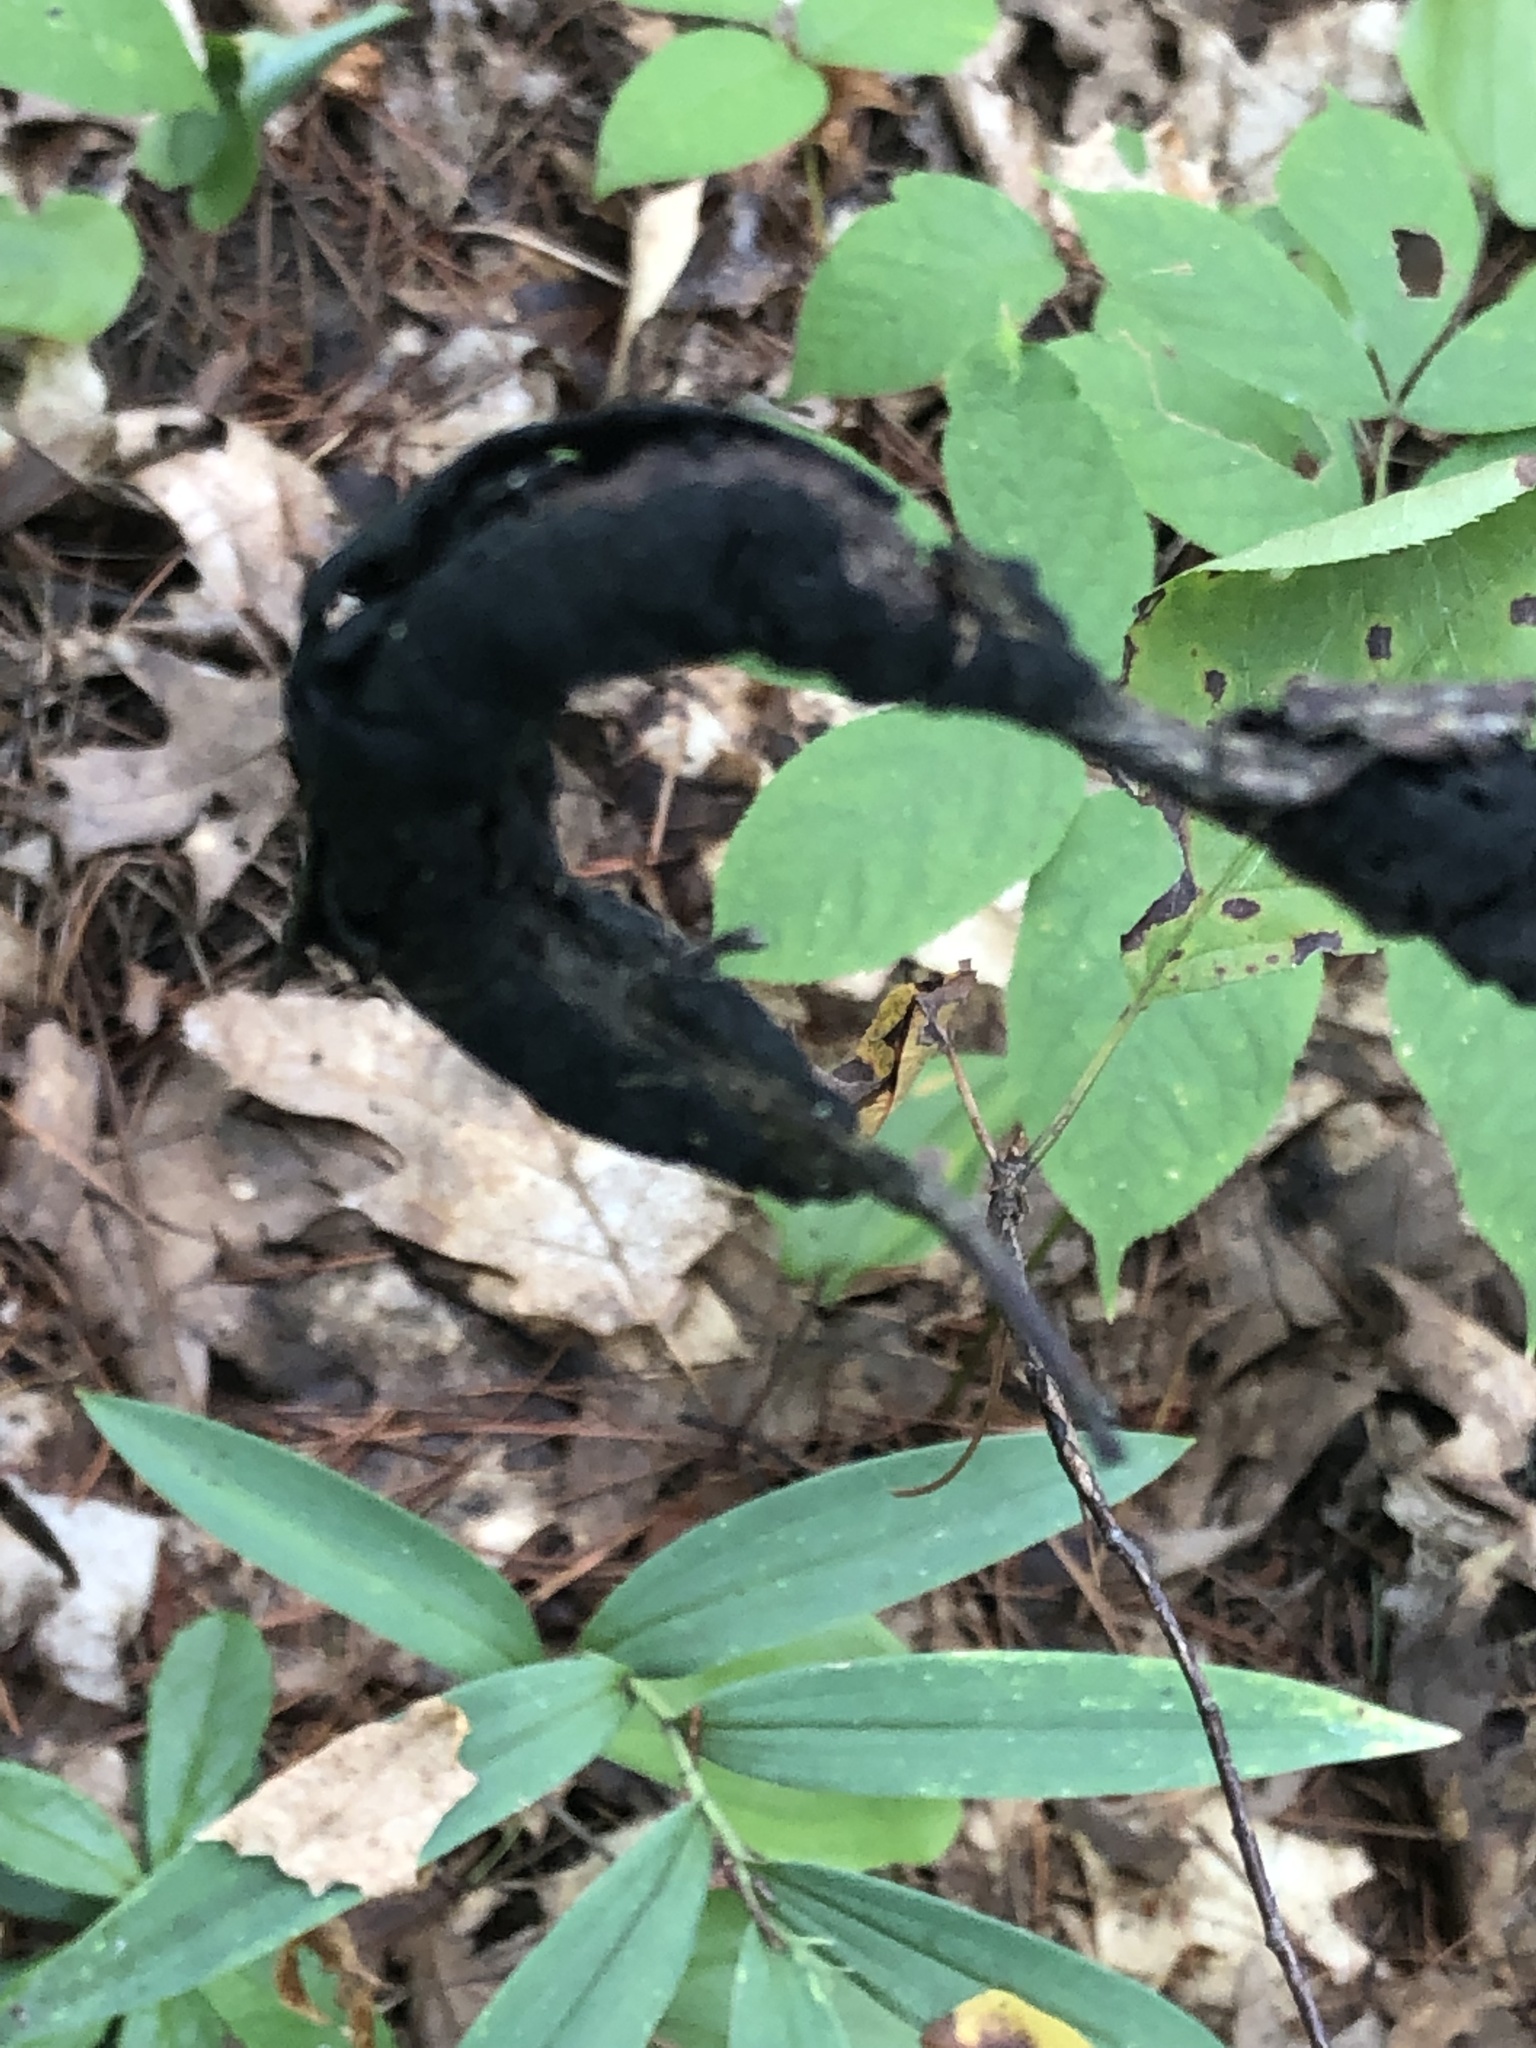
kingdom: Fungi
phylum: Ascomycota
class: Dothideomycetes
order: Venturiales
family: Venturiaceae
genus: Apiosporina
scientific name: Apiosporina morbosa
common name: Black knot
